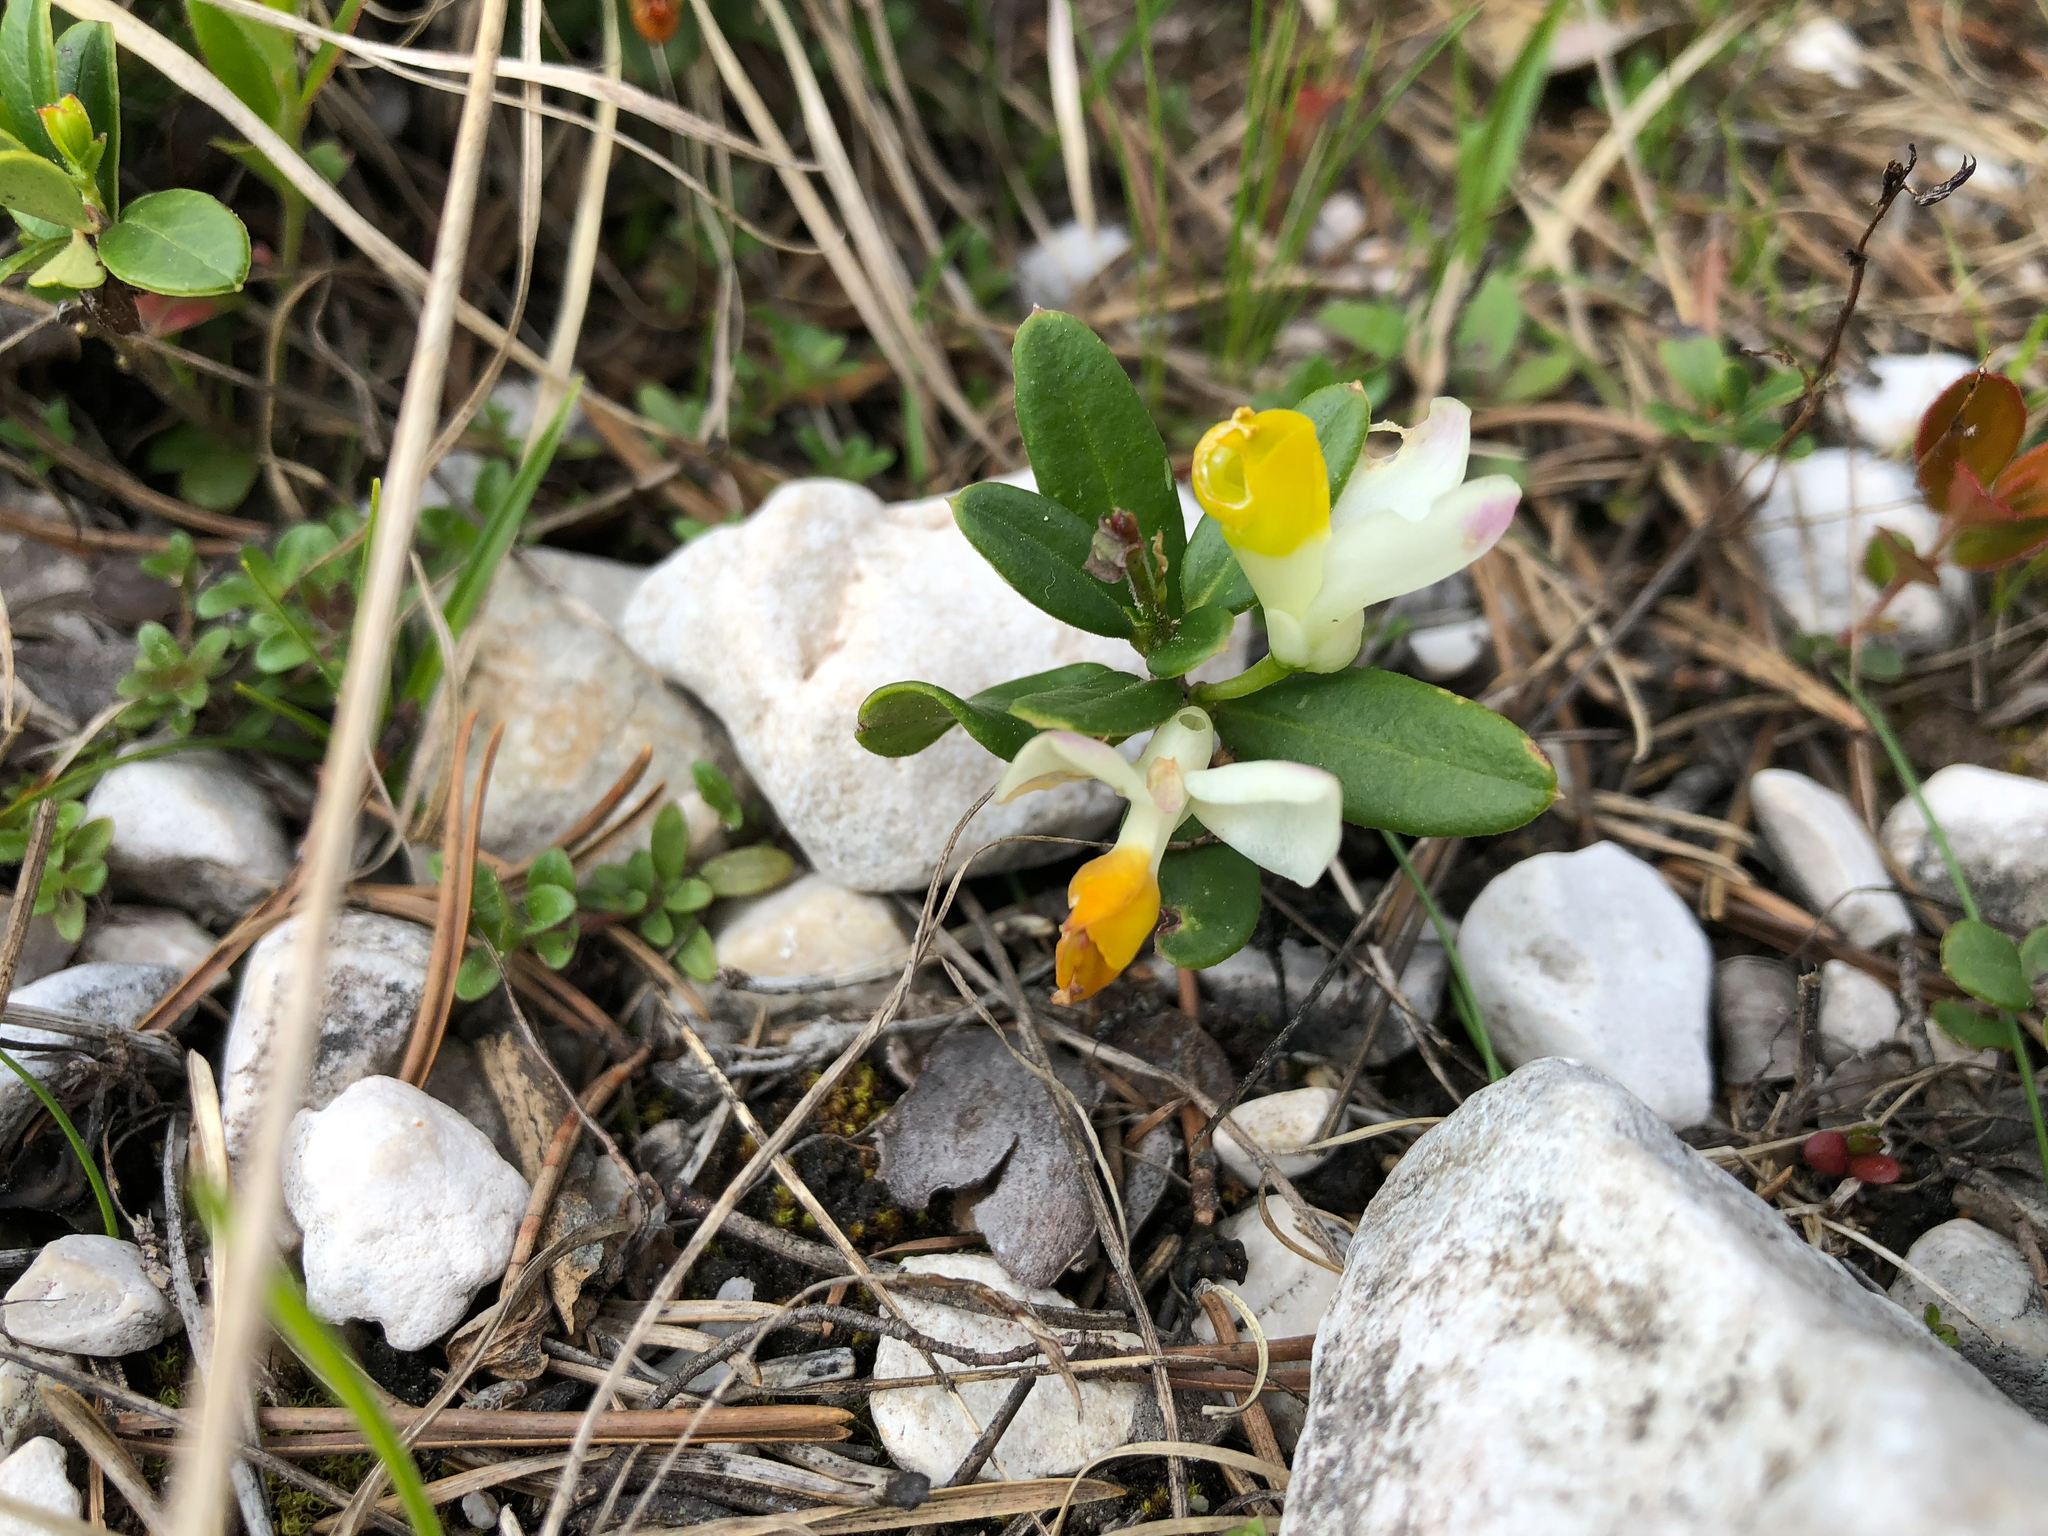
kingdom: Plantae
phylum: Tracheophyta
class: Magnoliopsida
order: Fabales
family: Polygalaceae
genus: Polygaloides
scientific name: Polygaloides chamaebuxus
